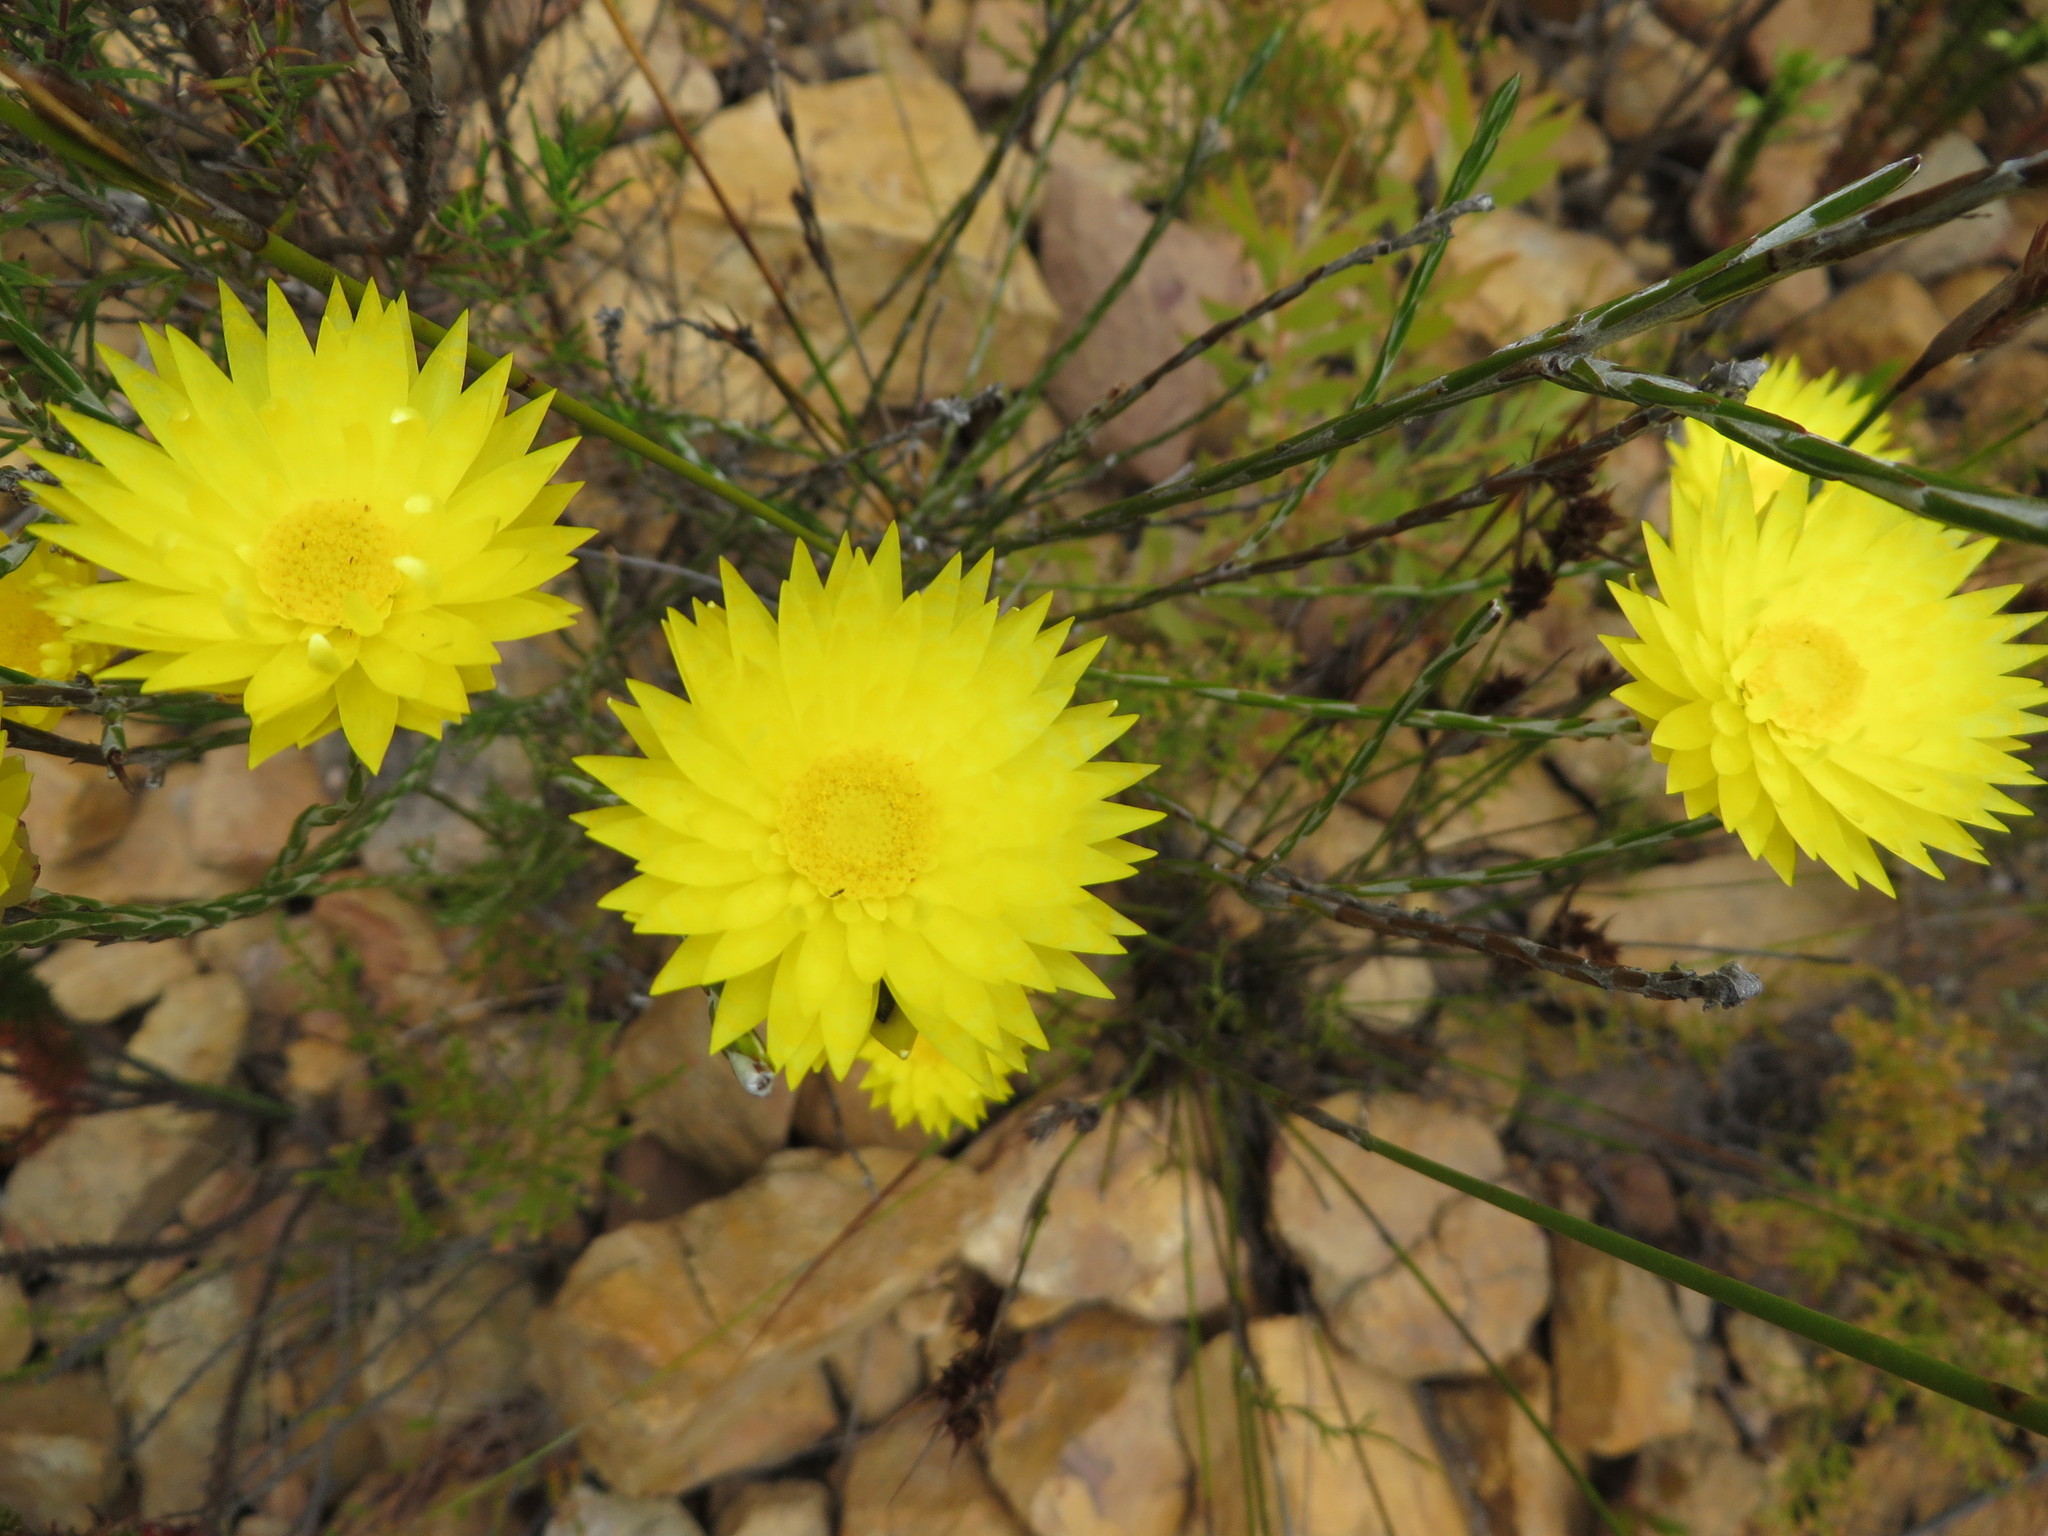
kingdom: Plantae
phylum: Tracheophyta
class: Magnoliopsida
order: Asterales
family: Asteraceae
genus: Edmondia
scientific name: Edmondia fasciculata
